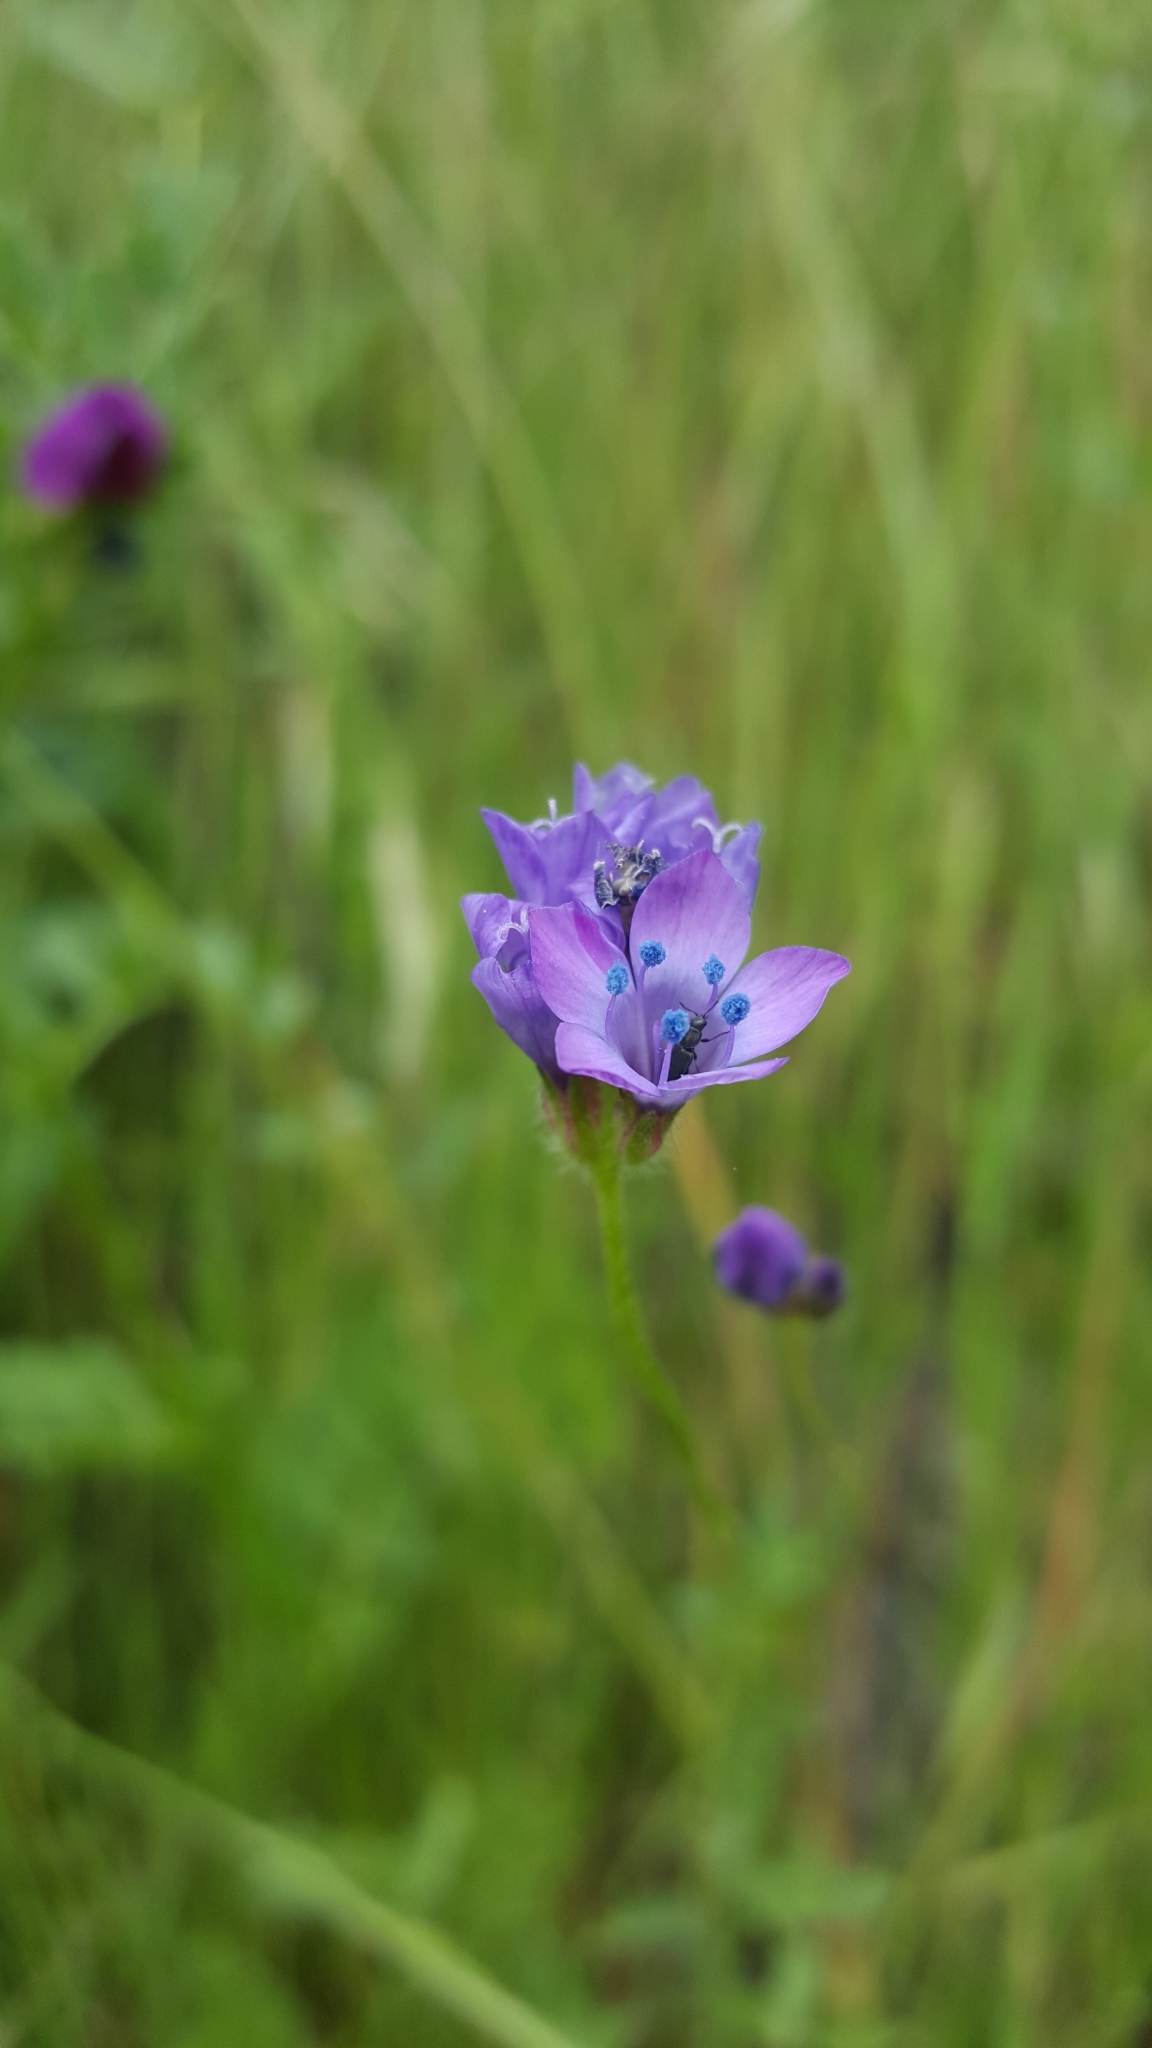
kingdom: Plantae
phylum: Tracheophyta
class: Magnoliopsida
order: Ericales
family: Polemoniaceae
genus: Gilia
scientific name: Gilia achilleifolia
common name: California gily-flower
